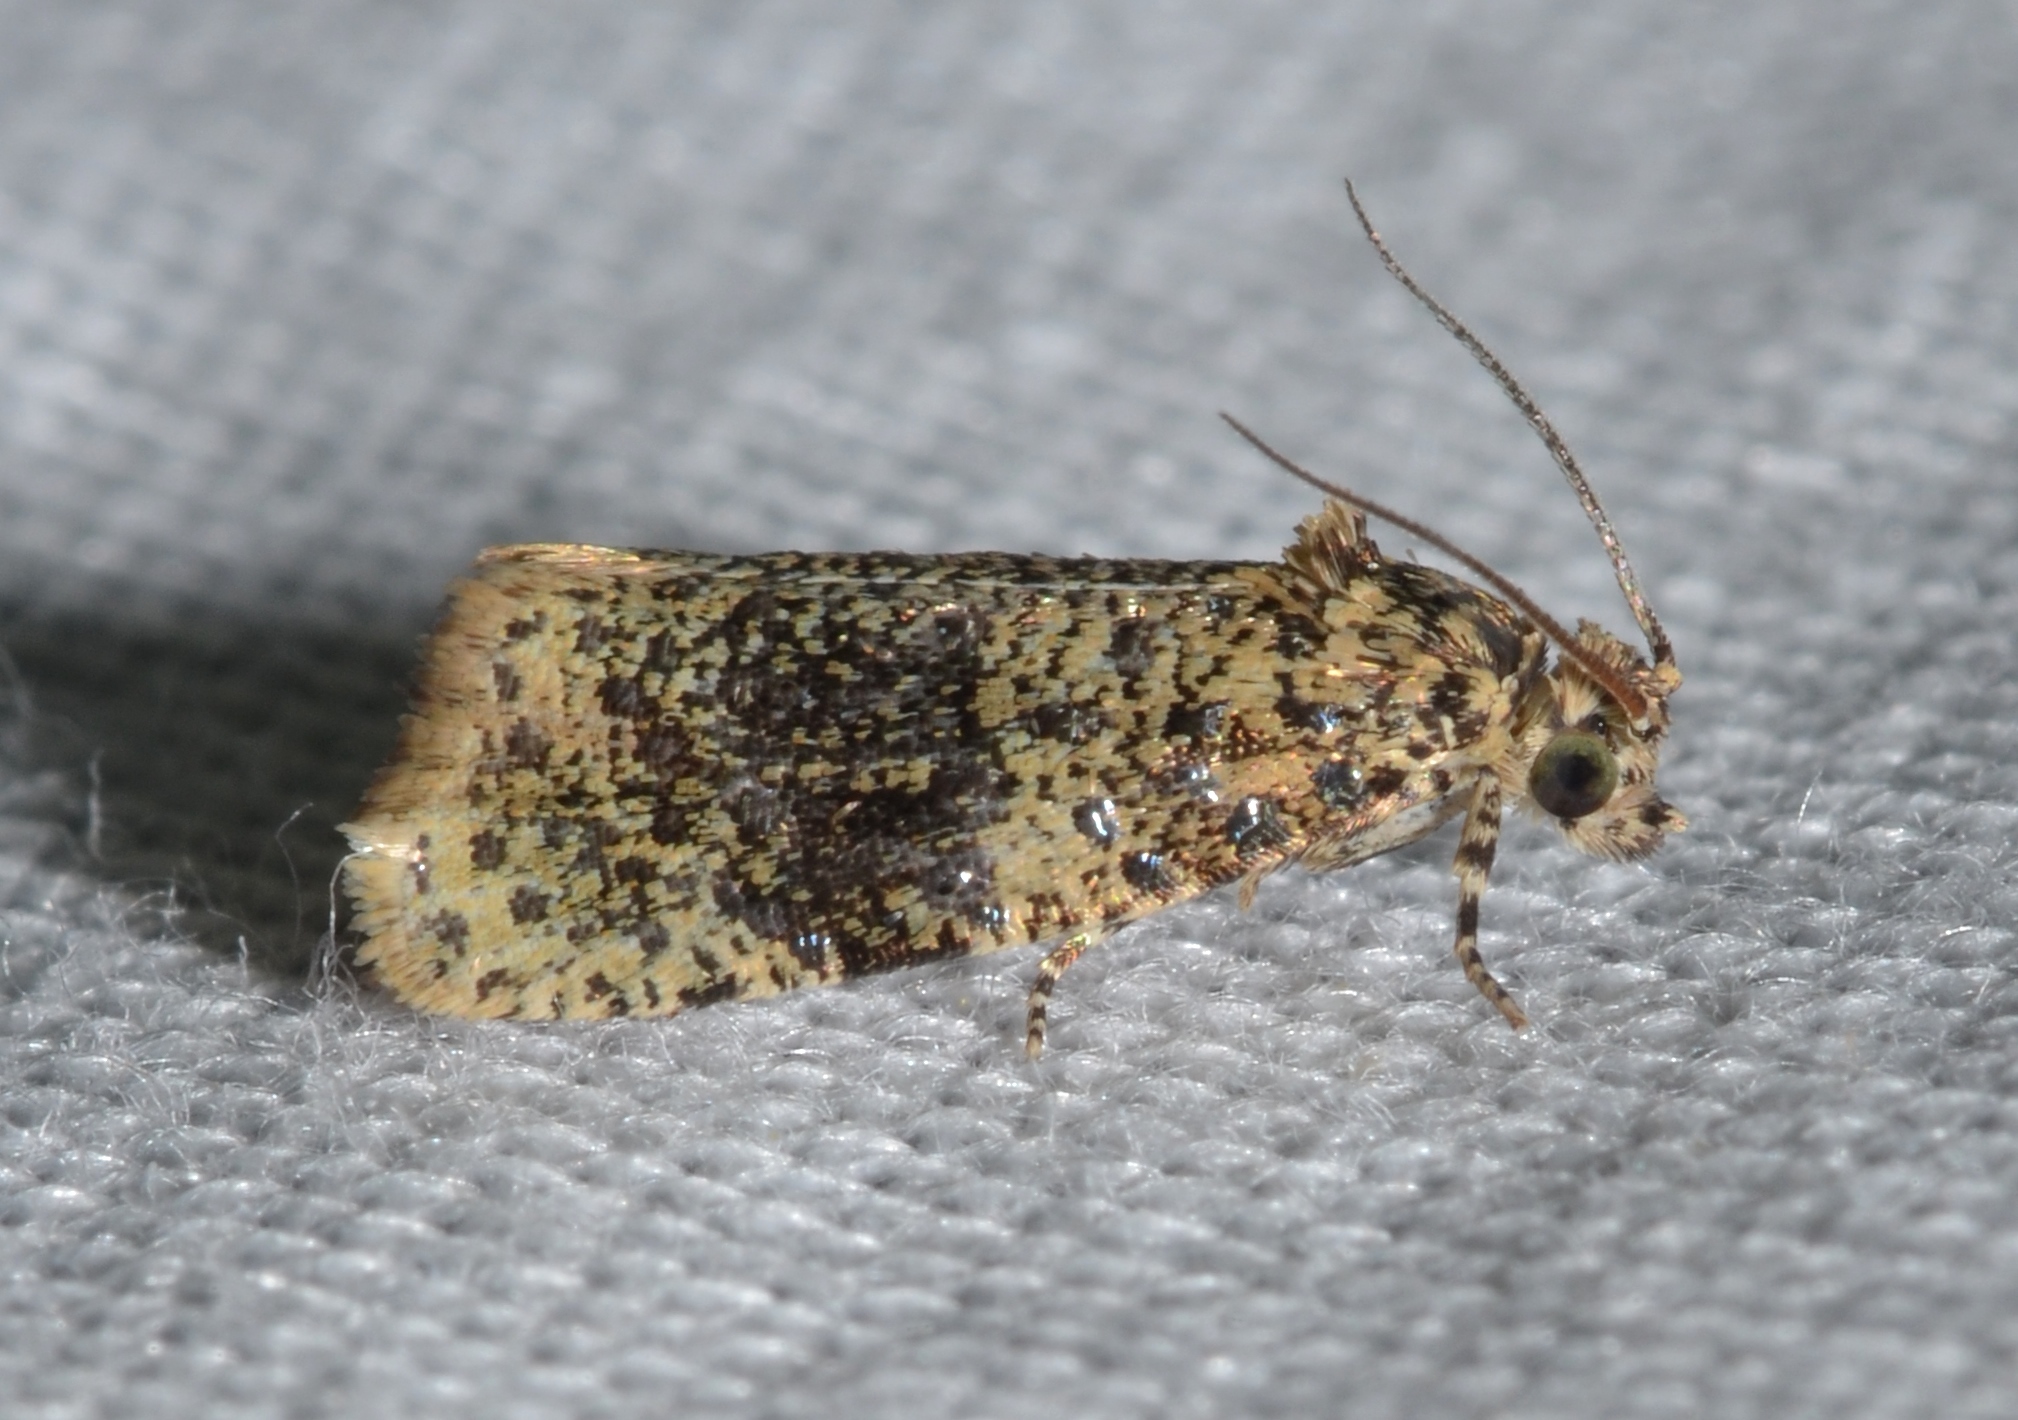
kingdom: Animalia
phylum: Arthropoda
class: Insecta
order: Lepidoptera
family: Tortricidae
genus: Olethreutes
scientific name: Olethreutes astrologana
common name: Astronomer moth
